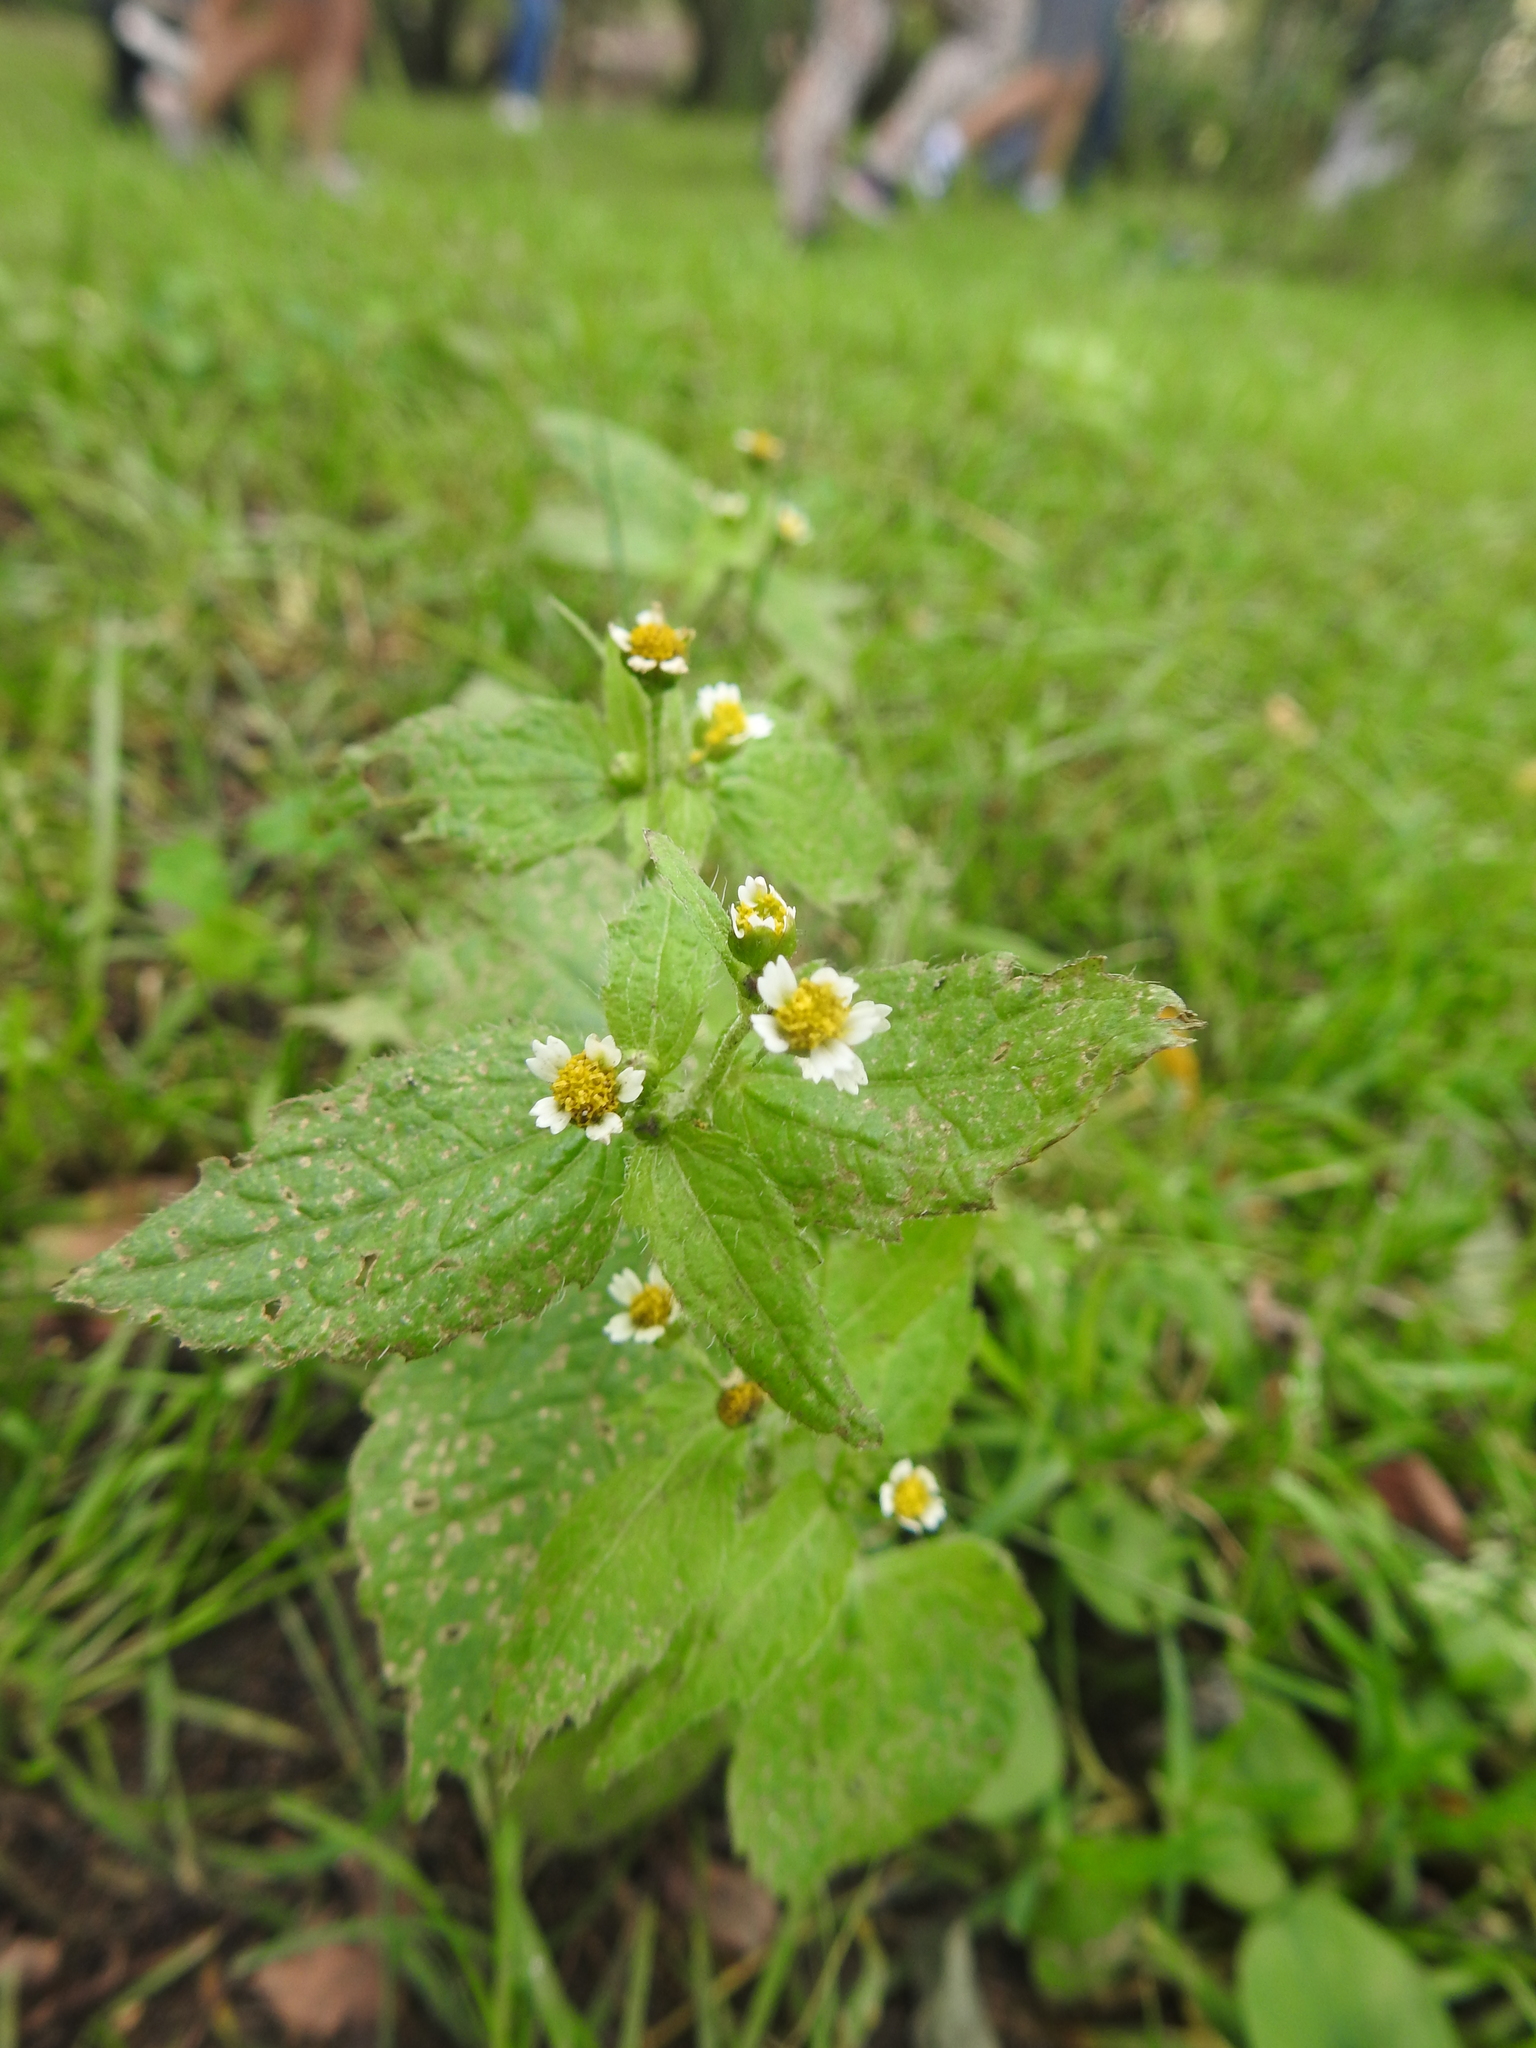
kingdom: Plantae
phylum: Tracheophyta
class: Magnoliopsida
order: Asterales
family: Asteraceae
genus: Galinsoga
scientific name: Galinsoga quadriradiata
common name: Shaggy soldier
